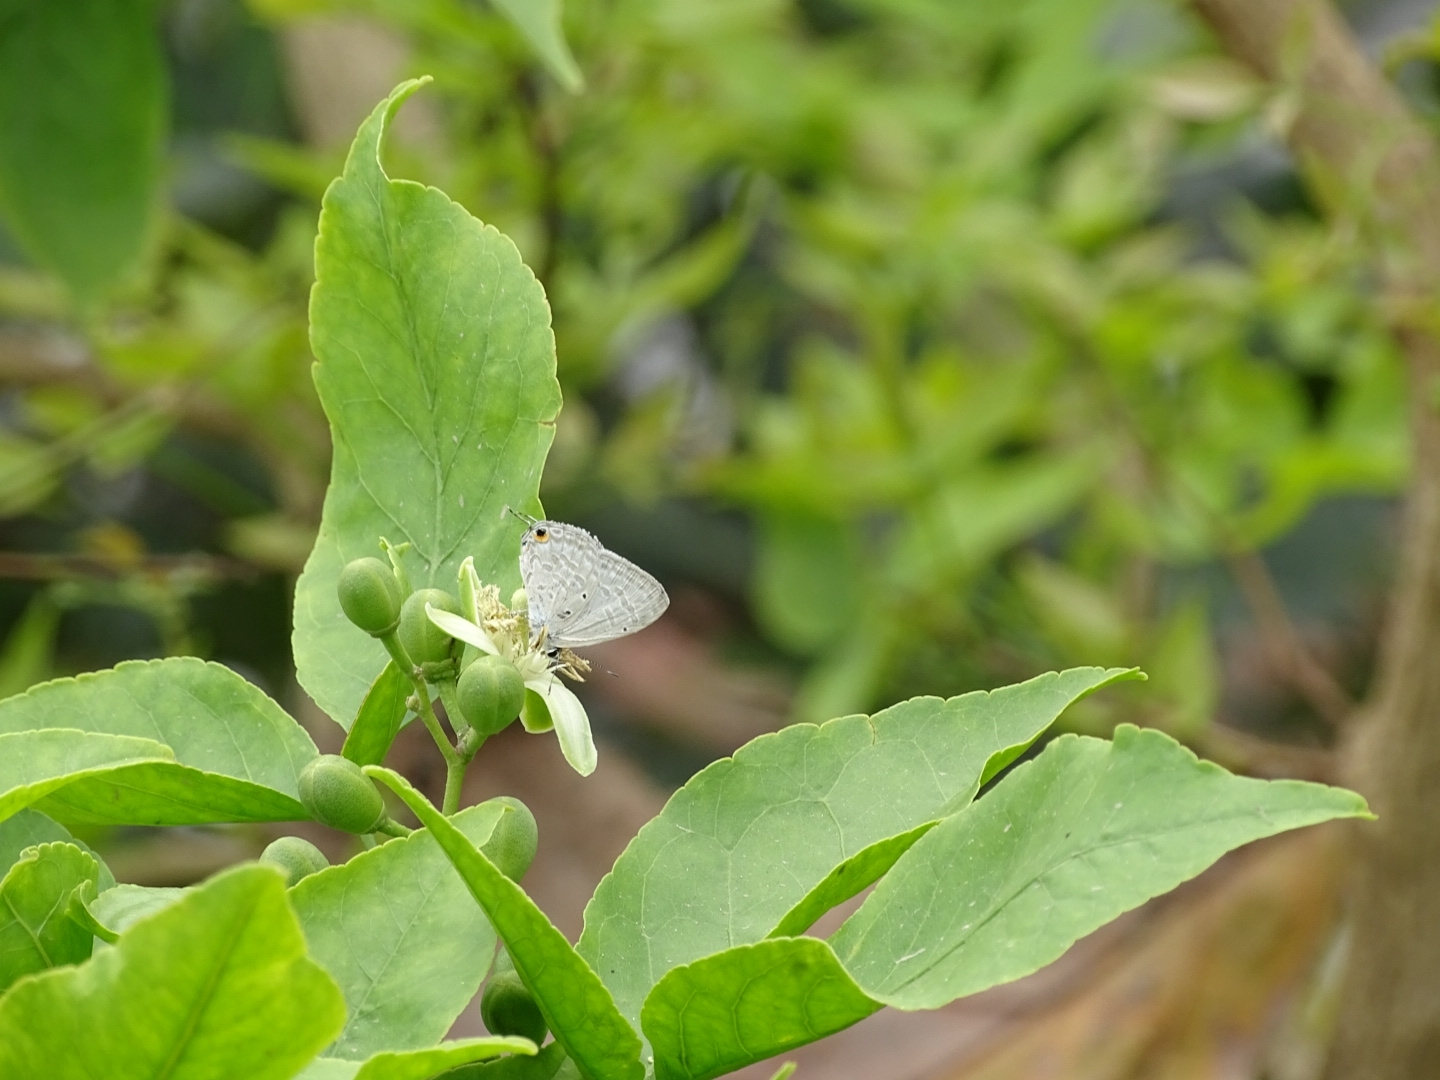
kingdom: Animalia
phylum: Arthropoda
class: Insecta
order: Lepidoptera
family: Lycaenidae
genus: Catochrysops
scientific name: Catochrysops strabo
